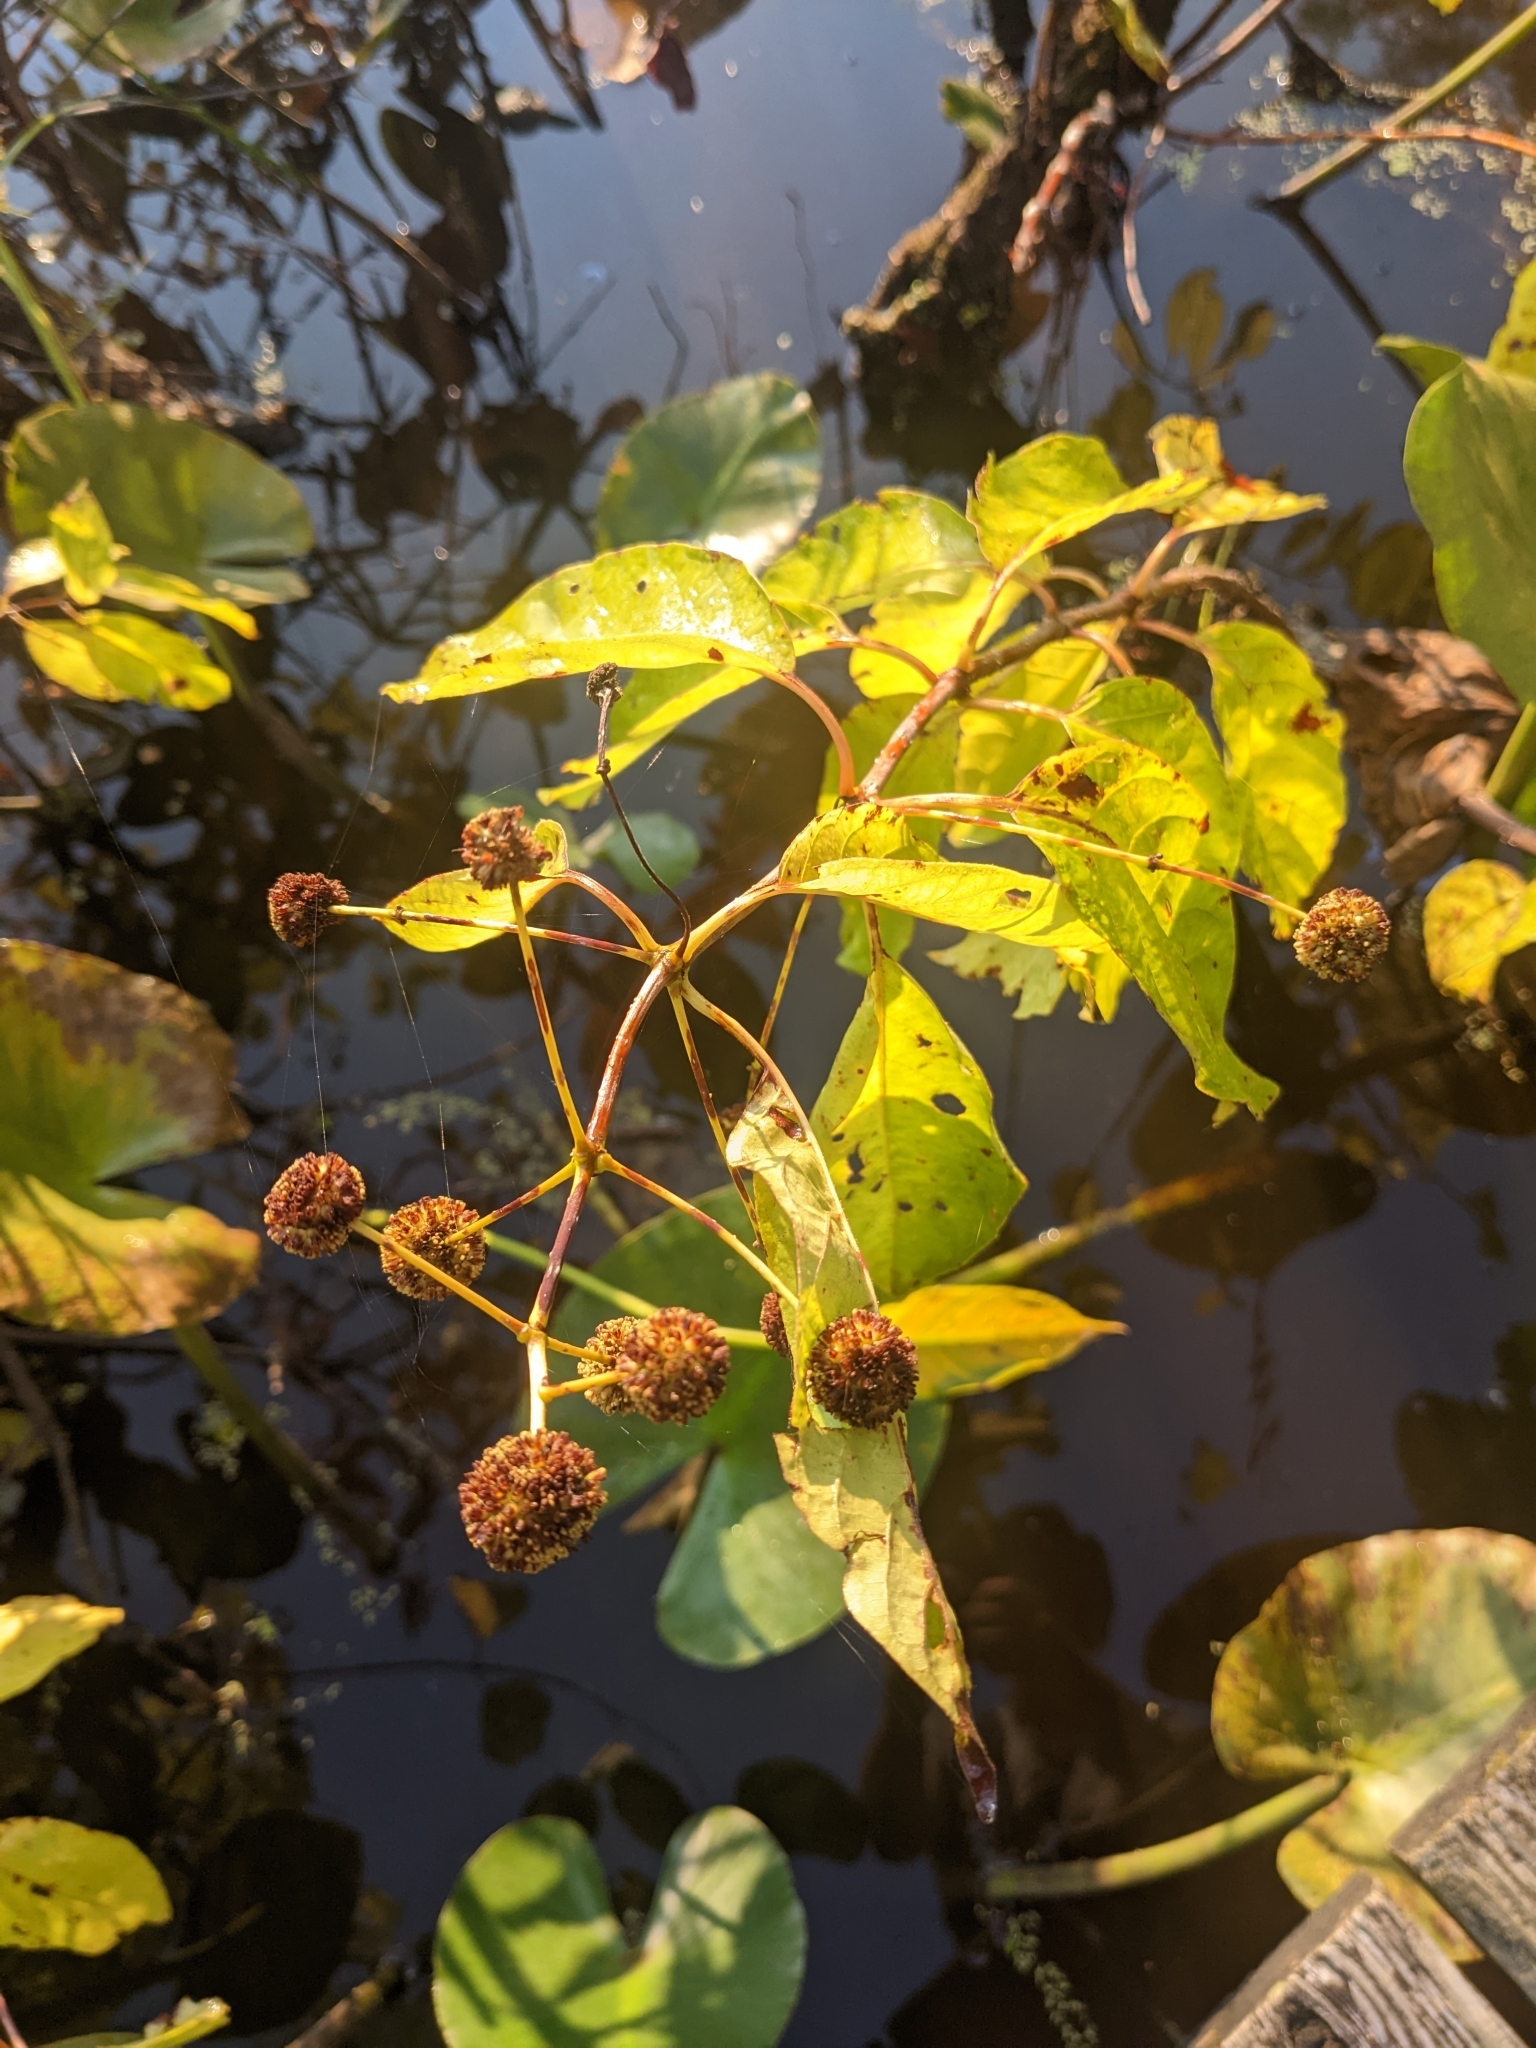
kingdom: Plantae
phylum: Tracheophyta
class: Magnoliopsida
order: Gentianales
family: Rubiaceae
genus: Cephalanthus
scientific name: Cephalanthus occidentalis
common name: Button-willow
